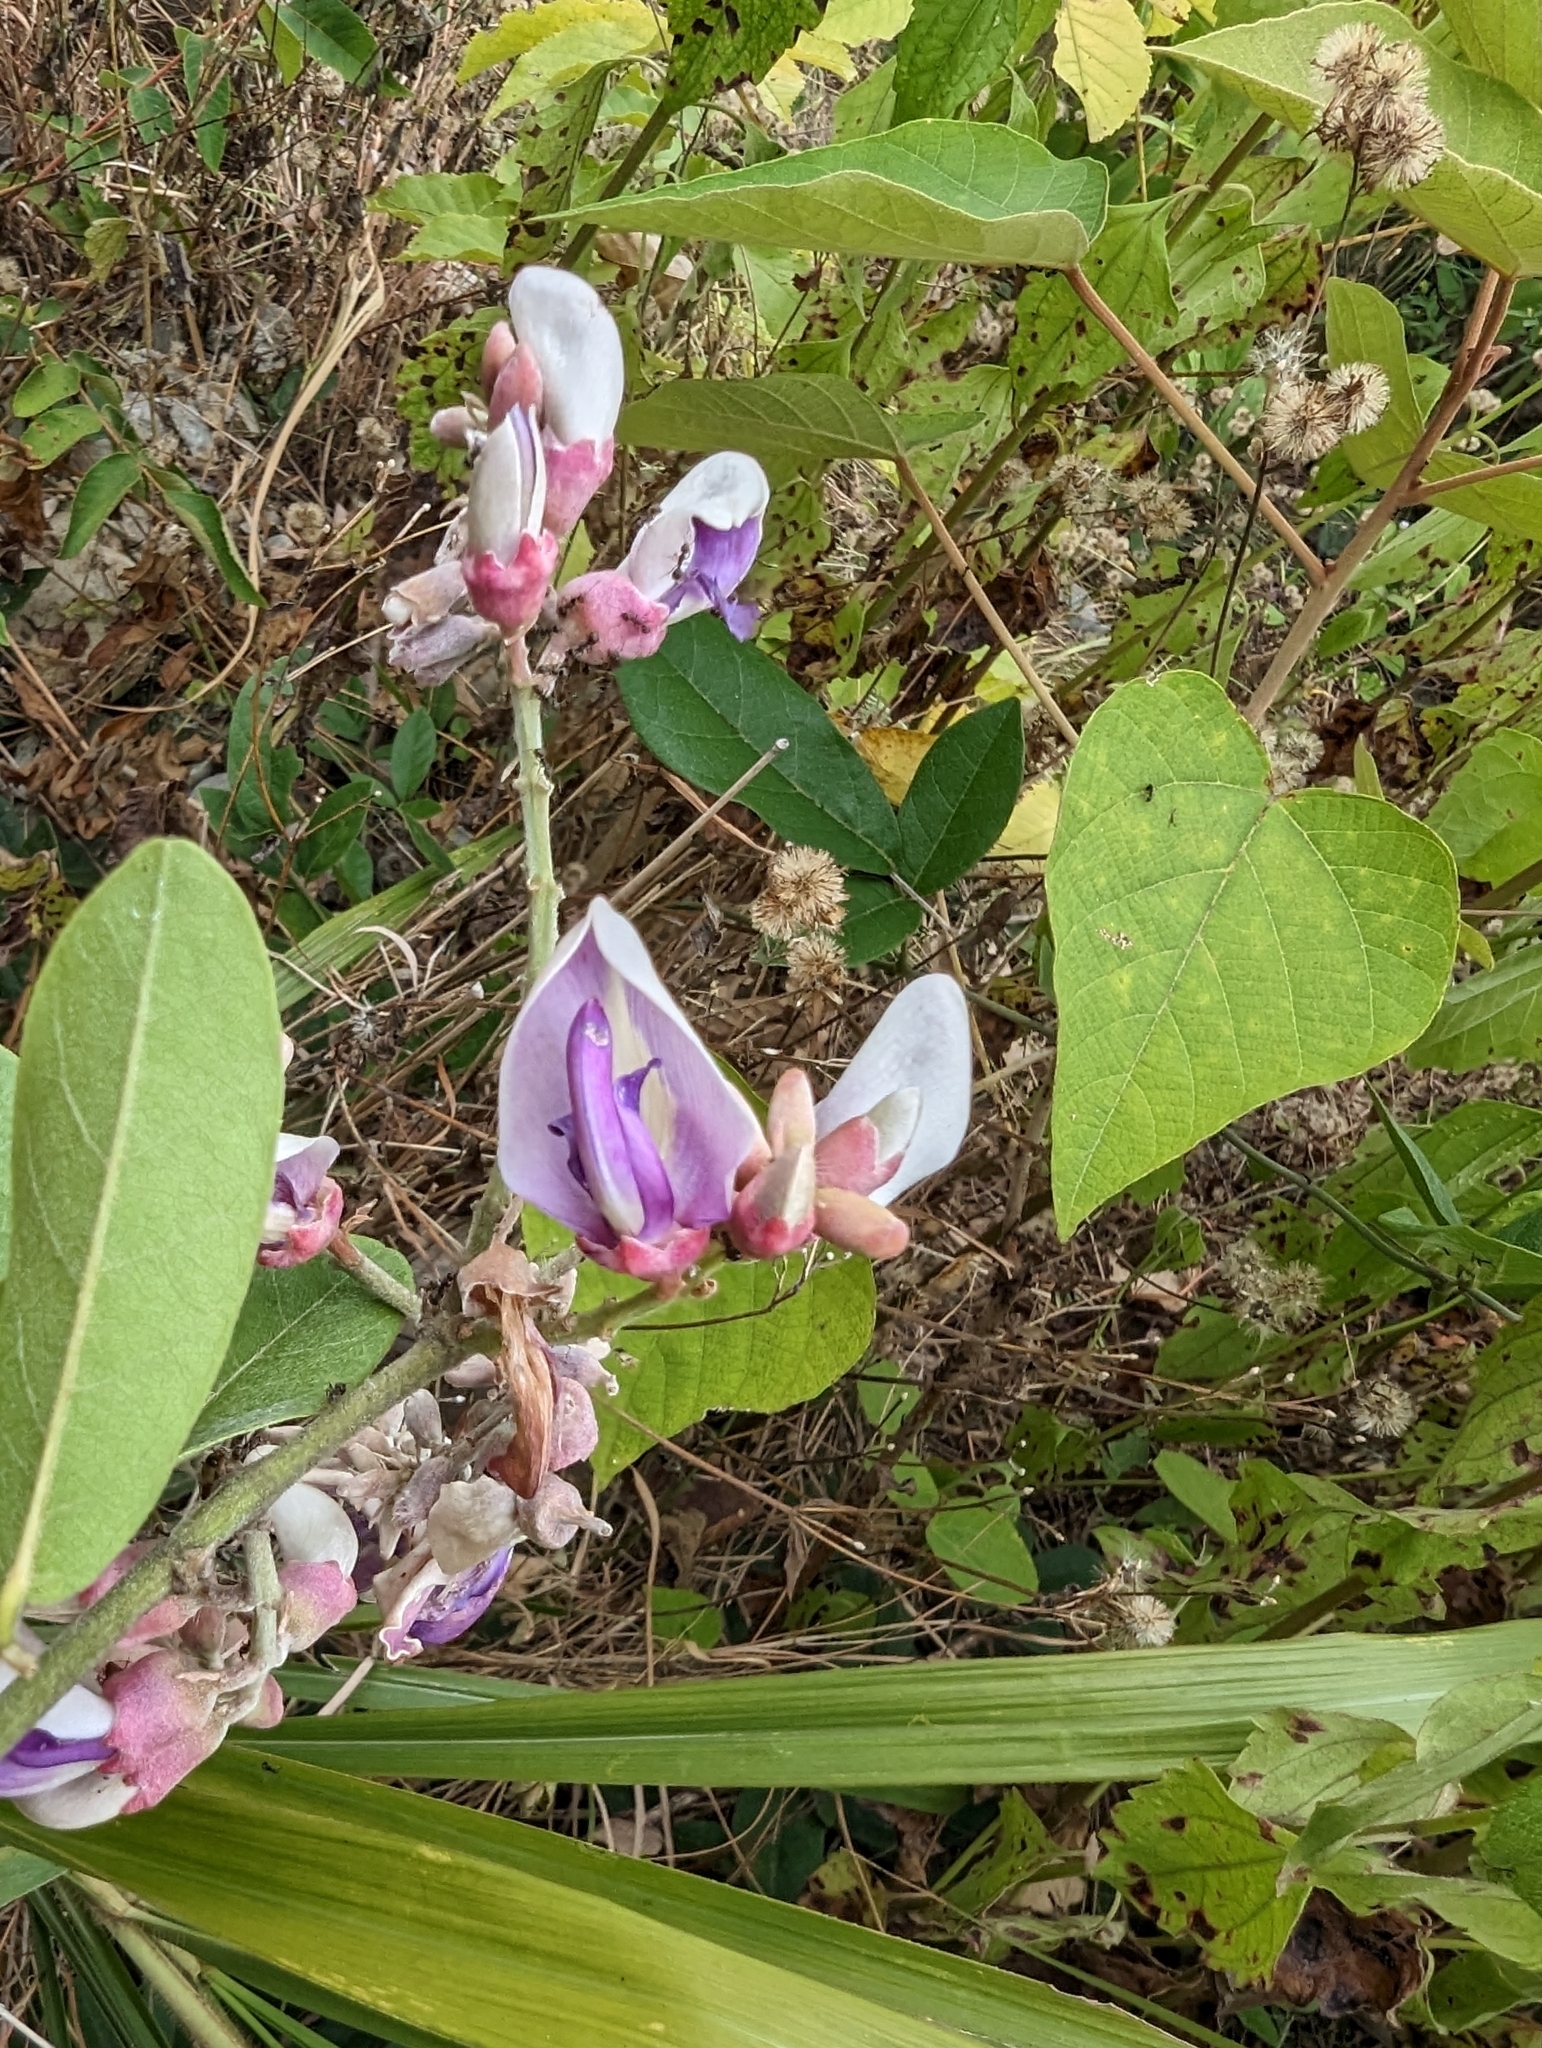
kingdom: Plantae
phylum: Tracheophyta
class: Magnoliopsida
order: Fabales
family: Fabaceae
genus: Callerya
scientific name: Callerya nitida
